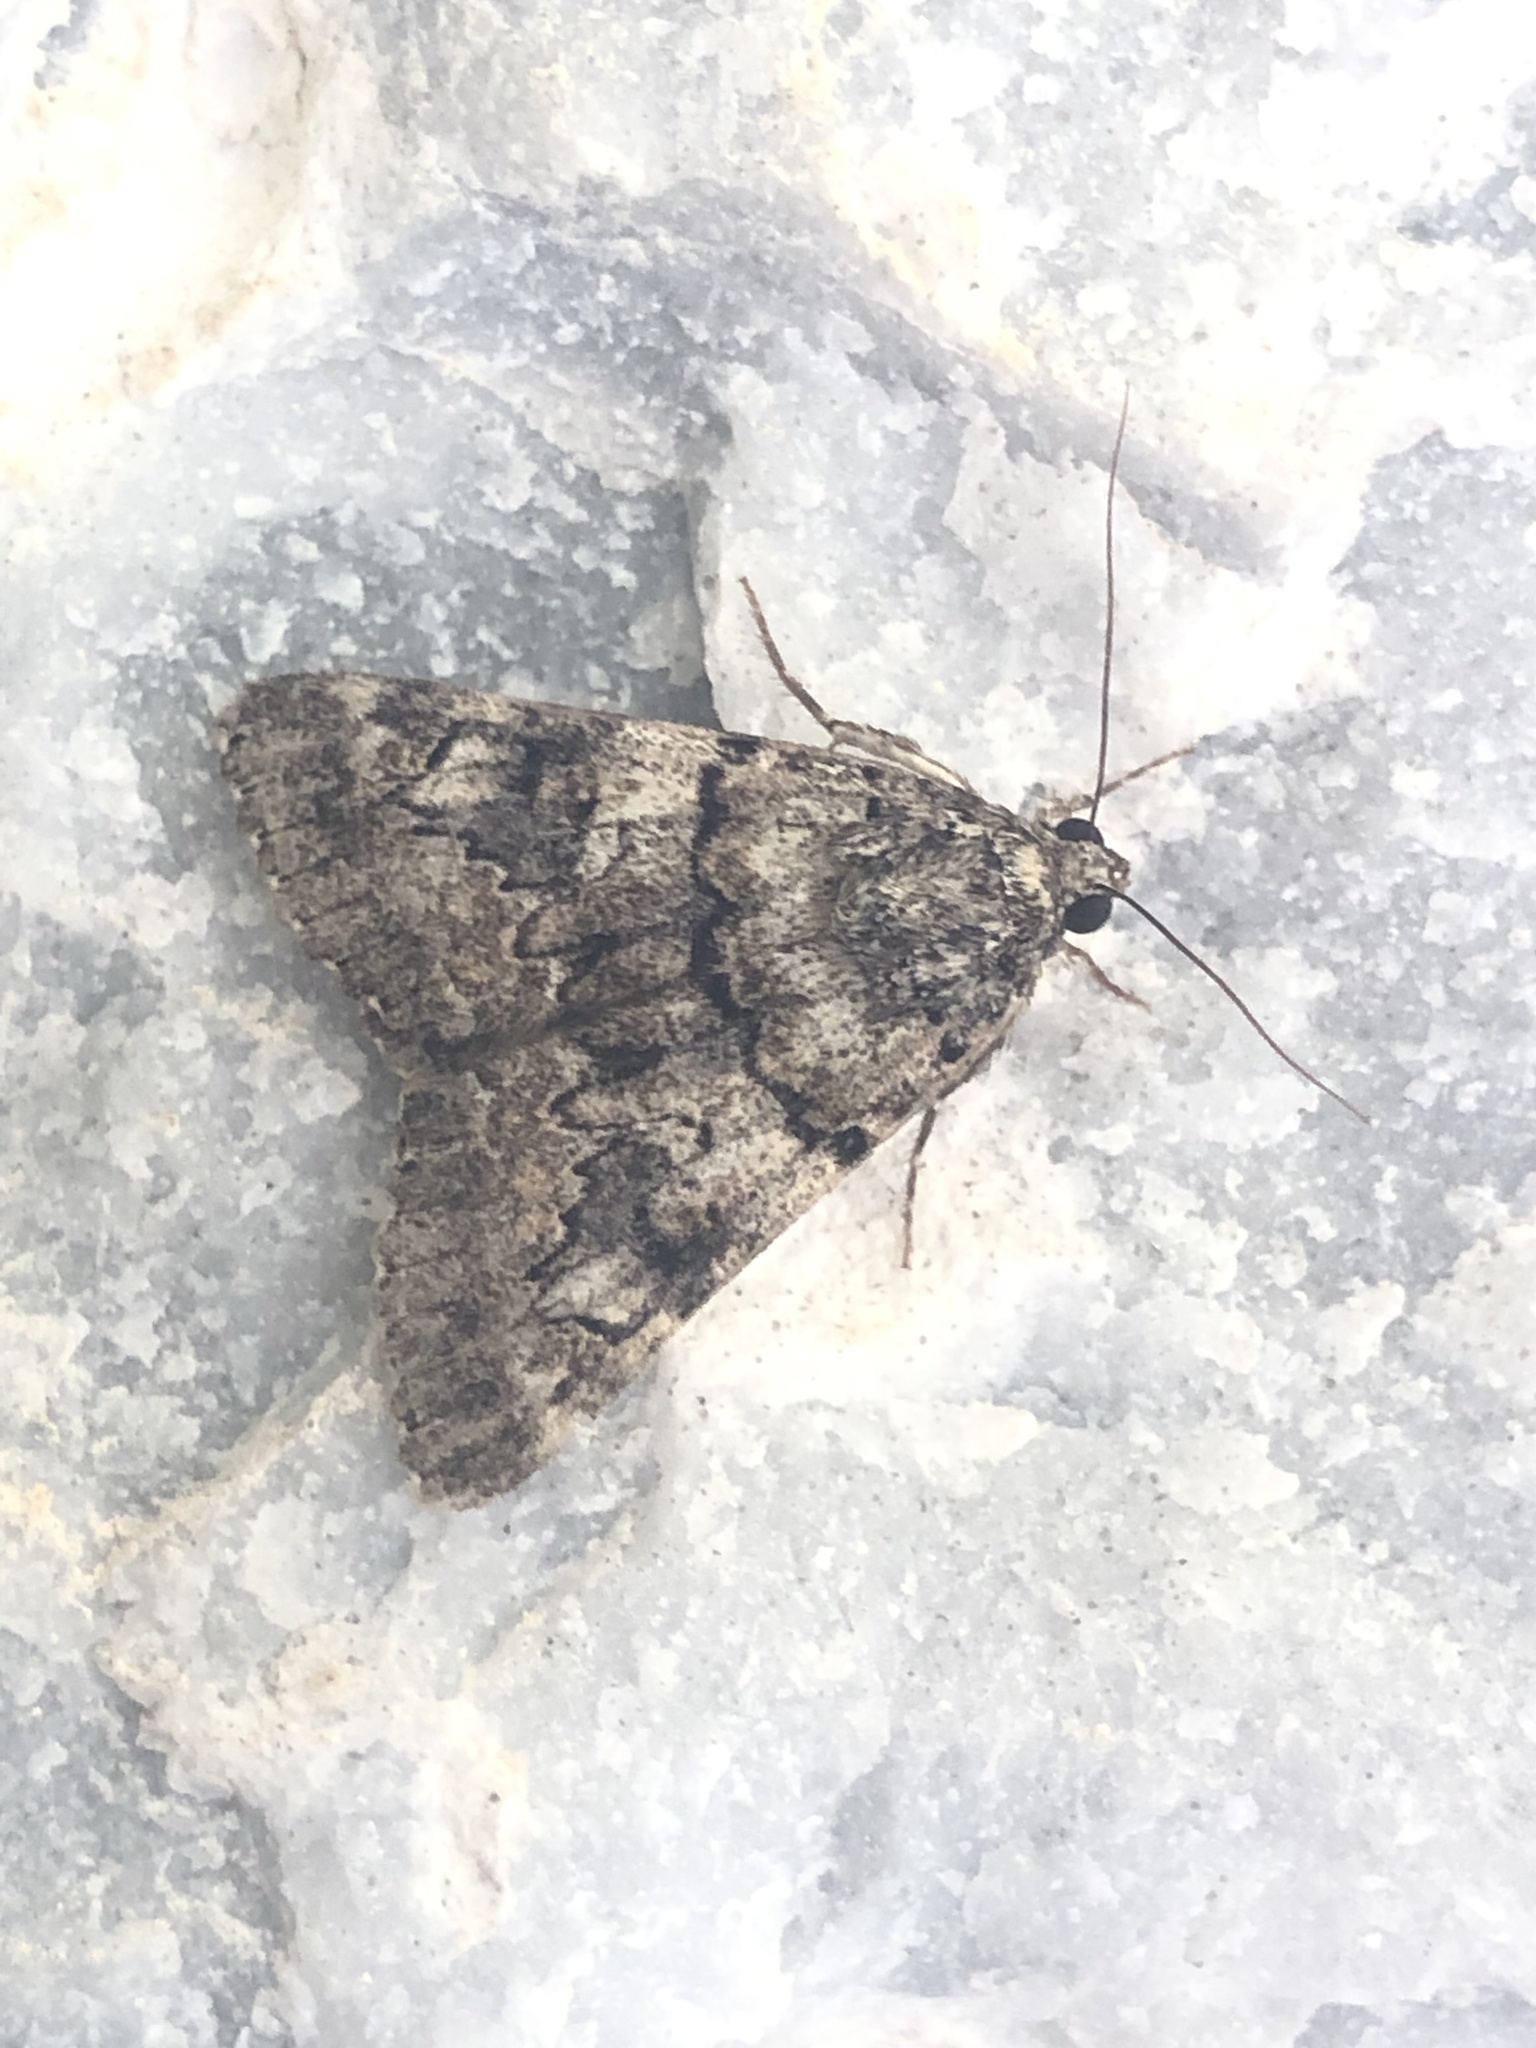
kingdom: Animalia
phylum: Arthropoda
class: Insecta
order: Lepidoptera
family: Erebidae
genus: Catocala
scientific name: Catocala nymphagoga
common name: Oak yellow underwing
